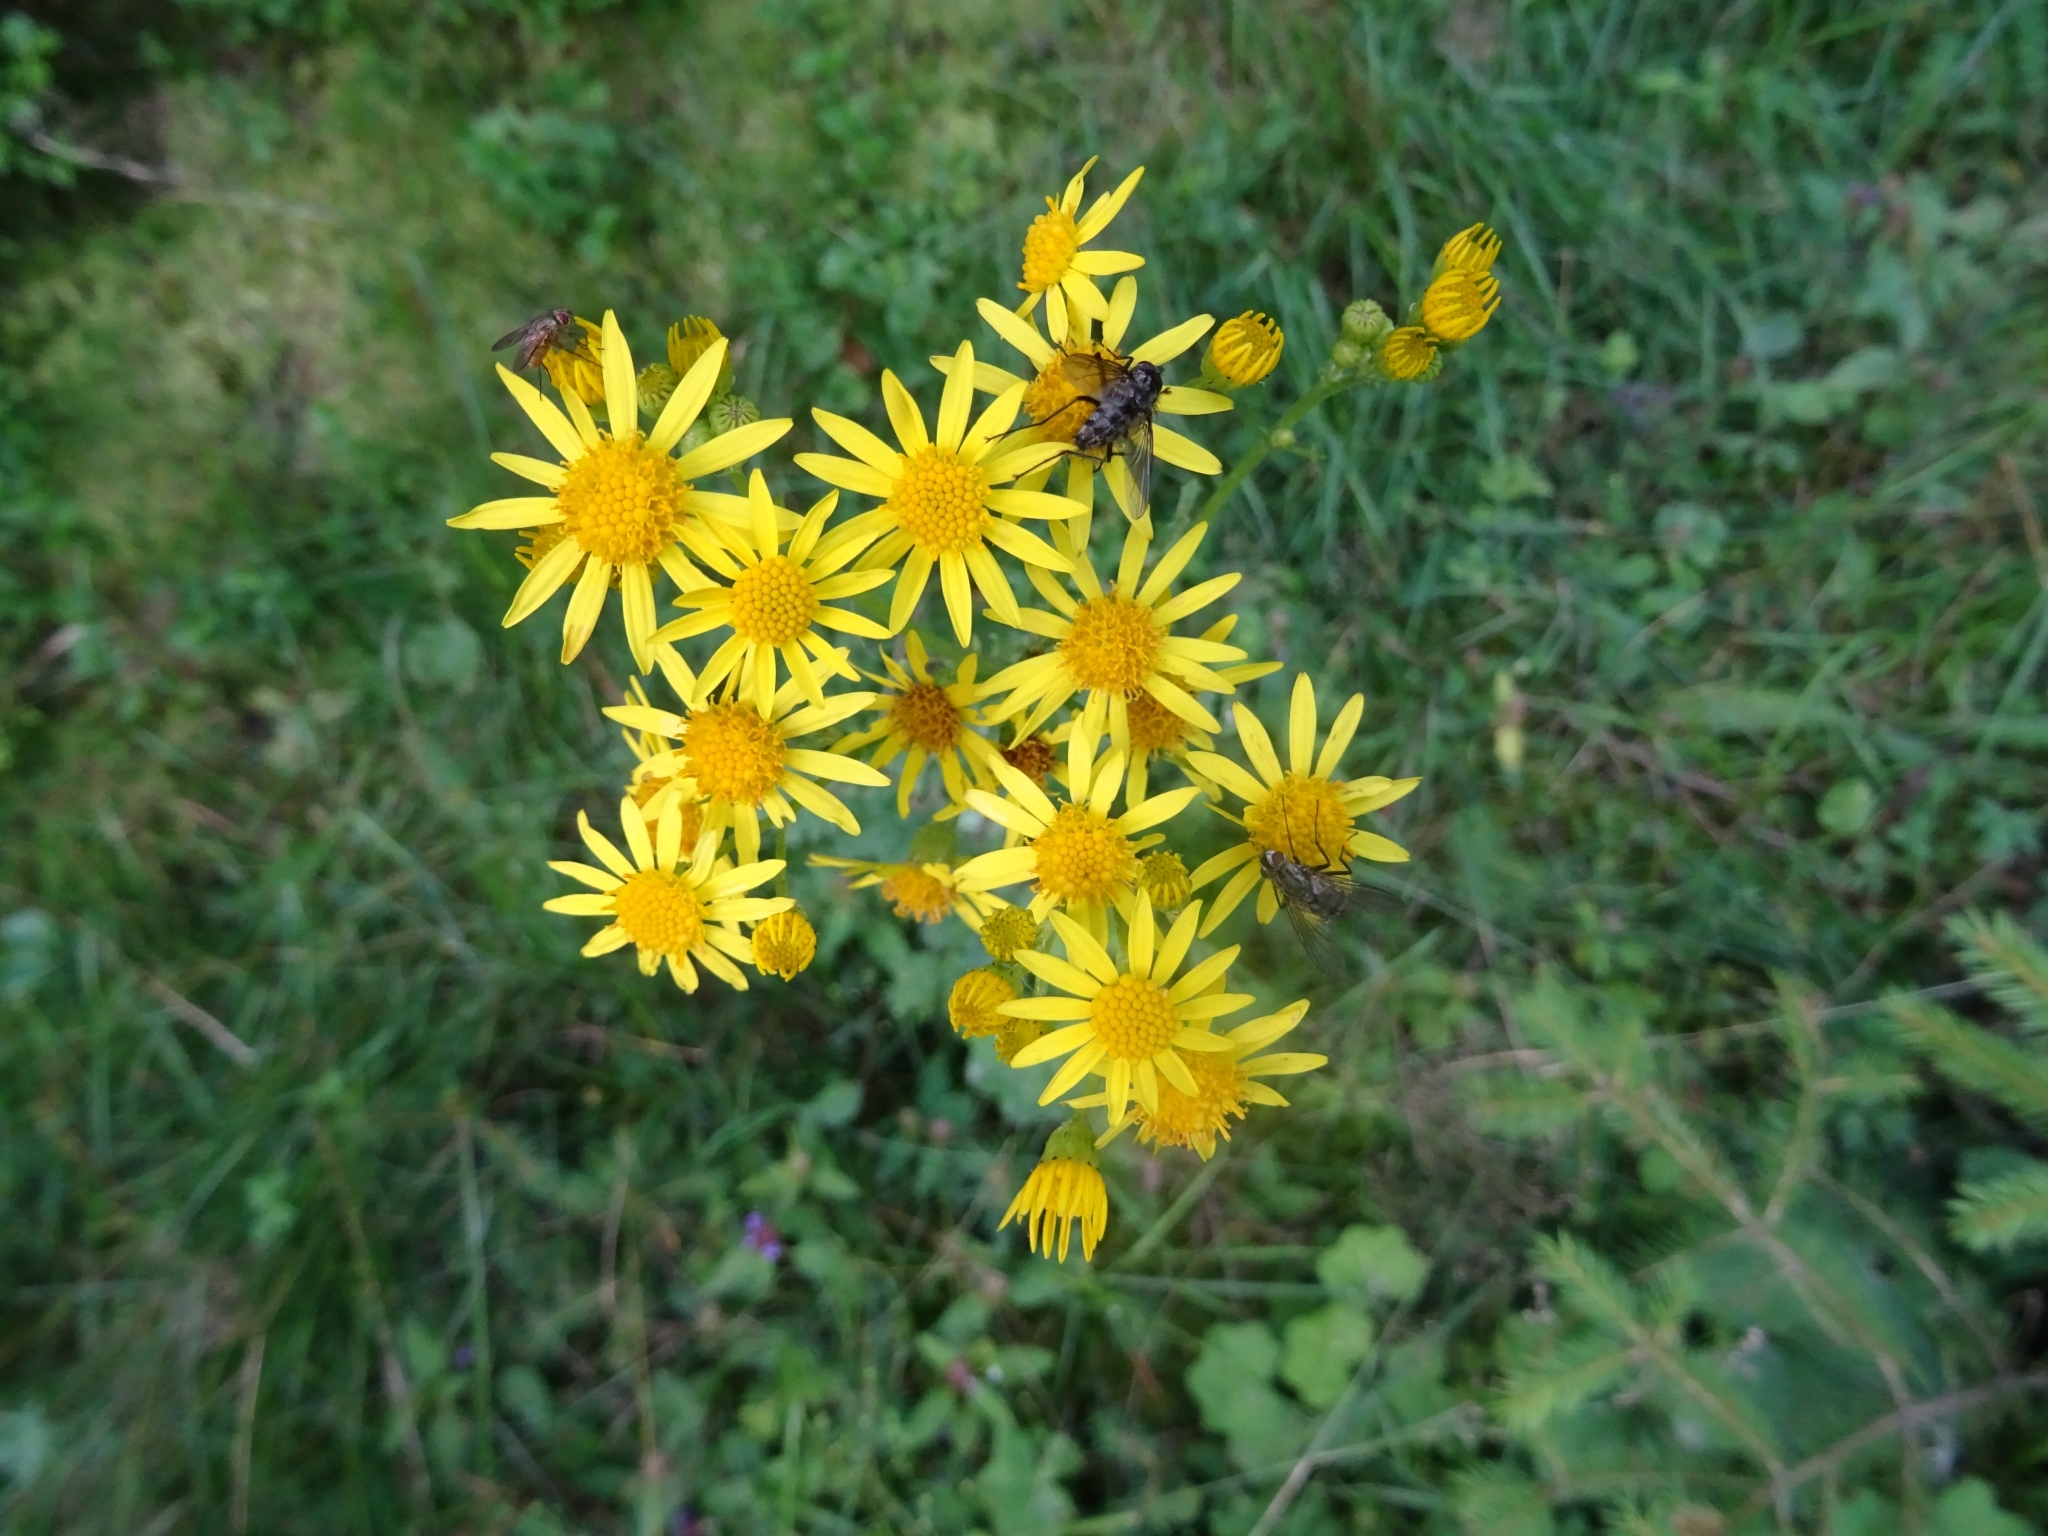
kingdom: Plantae
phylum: Tracheophyta
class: Magnoliopsida
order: Asterales
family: Asteraceae
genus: Jacobaea
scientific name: Jacobaea vulgaris
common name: Stinking willie
